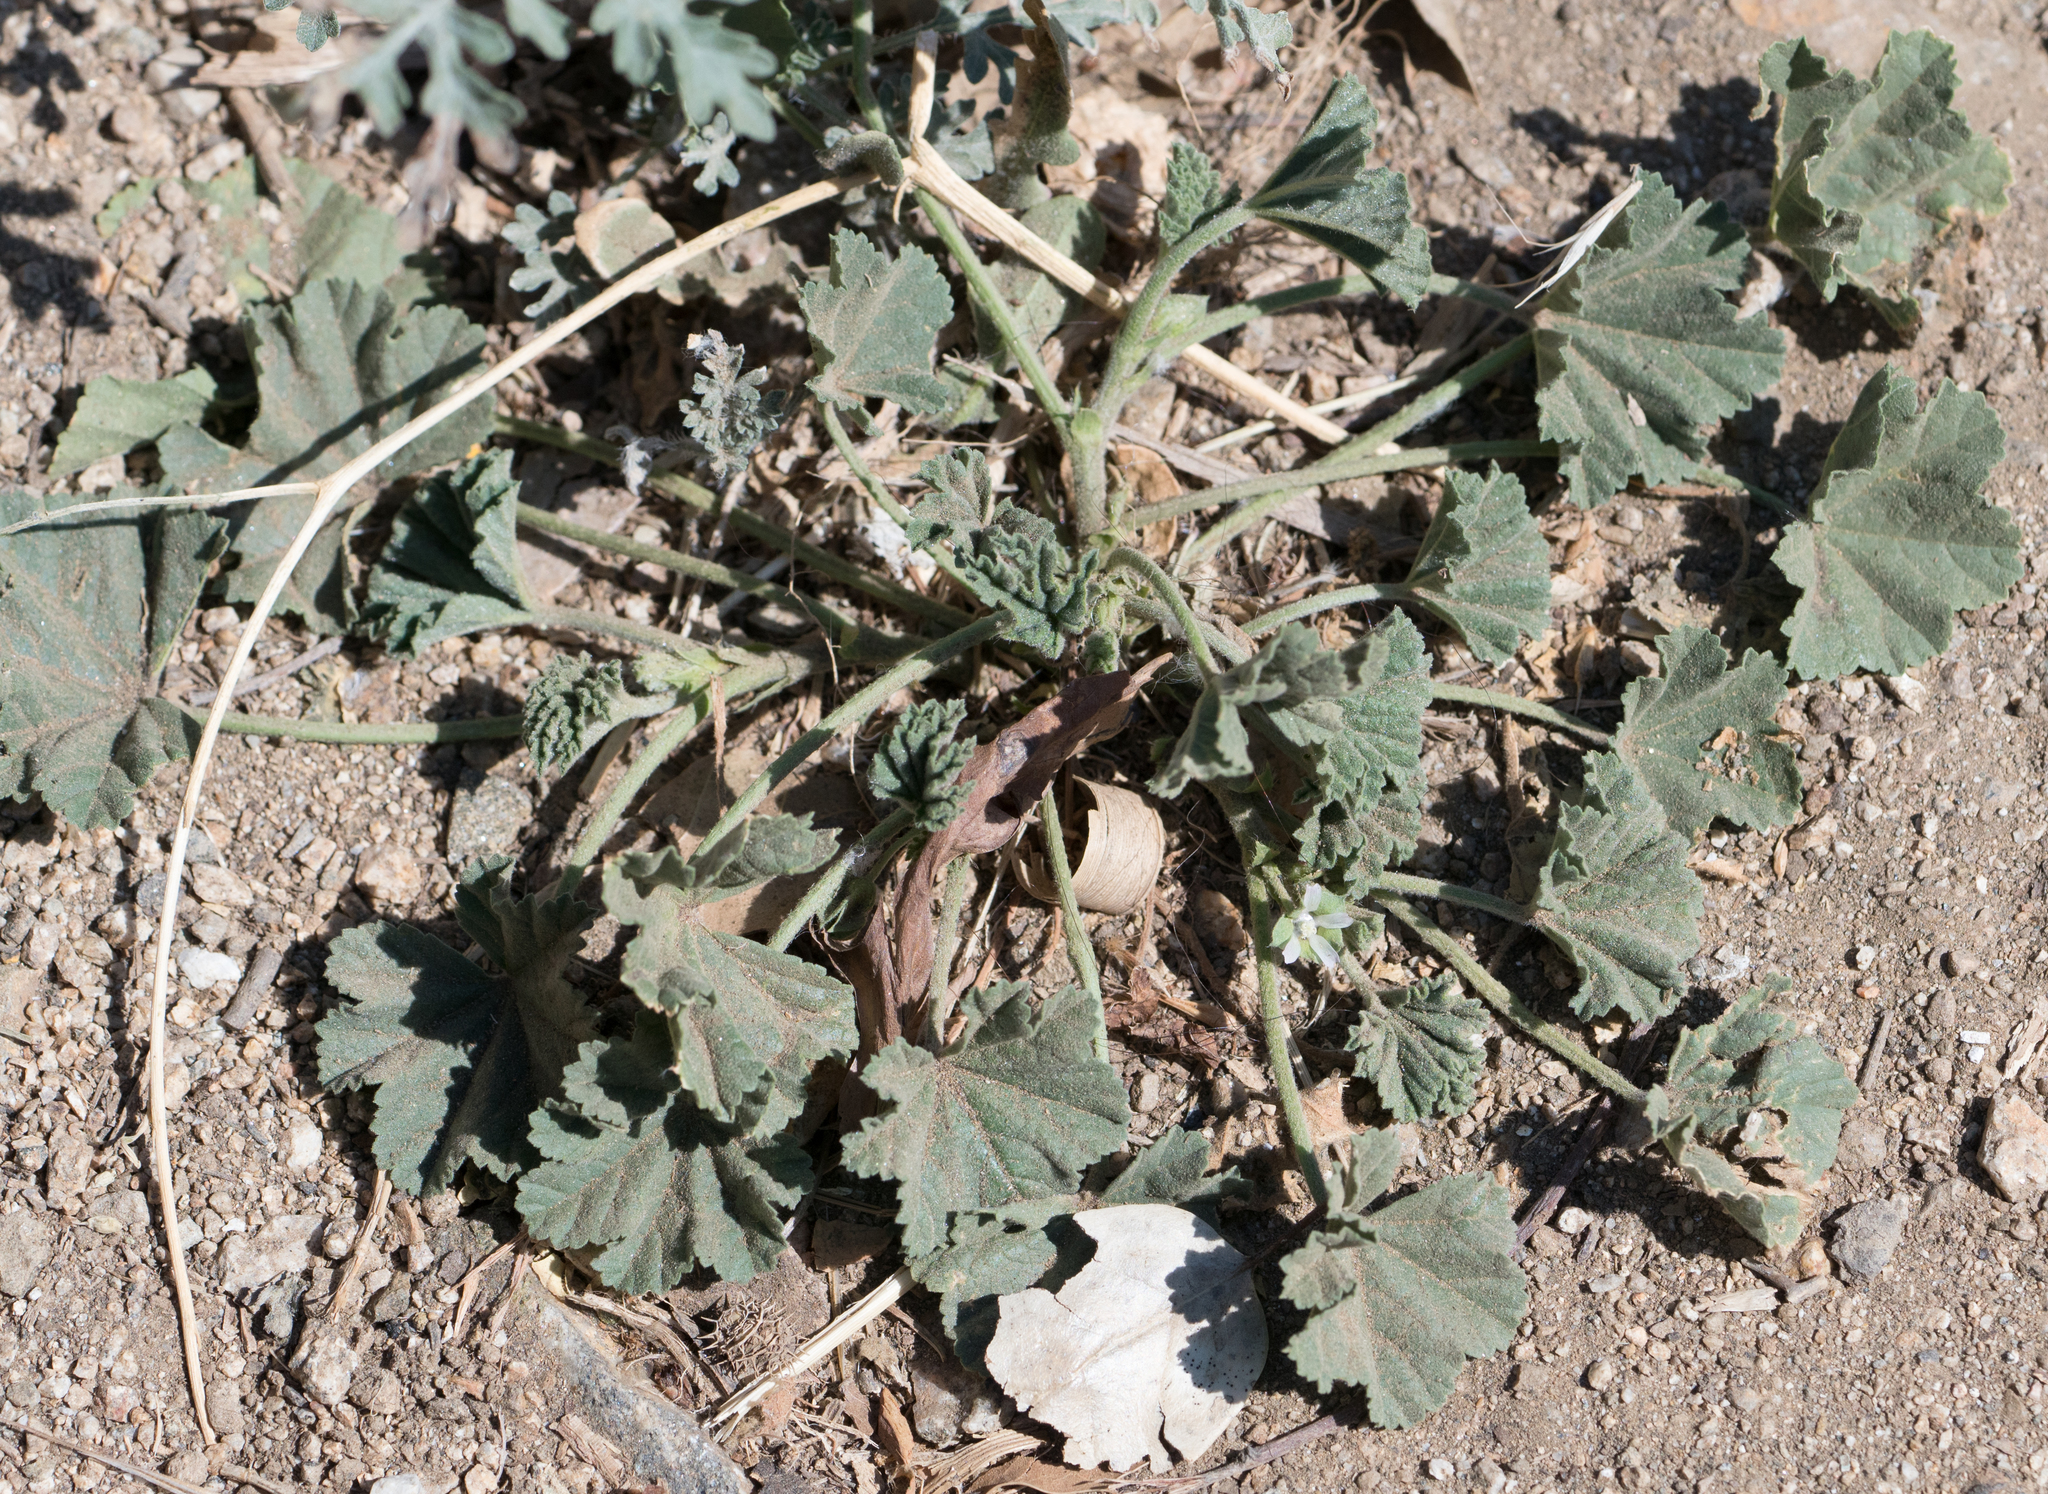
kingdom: Plantae
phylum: Tracheophyta
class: Magnoliopsida
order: Malvales
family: Malvaceae
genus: Malva
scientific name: Malva parviflora
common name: Least mallow
